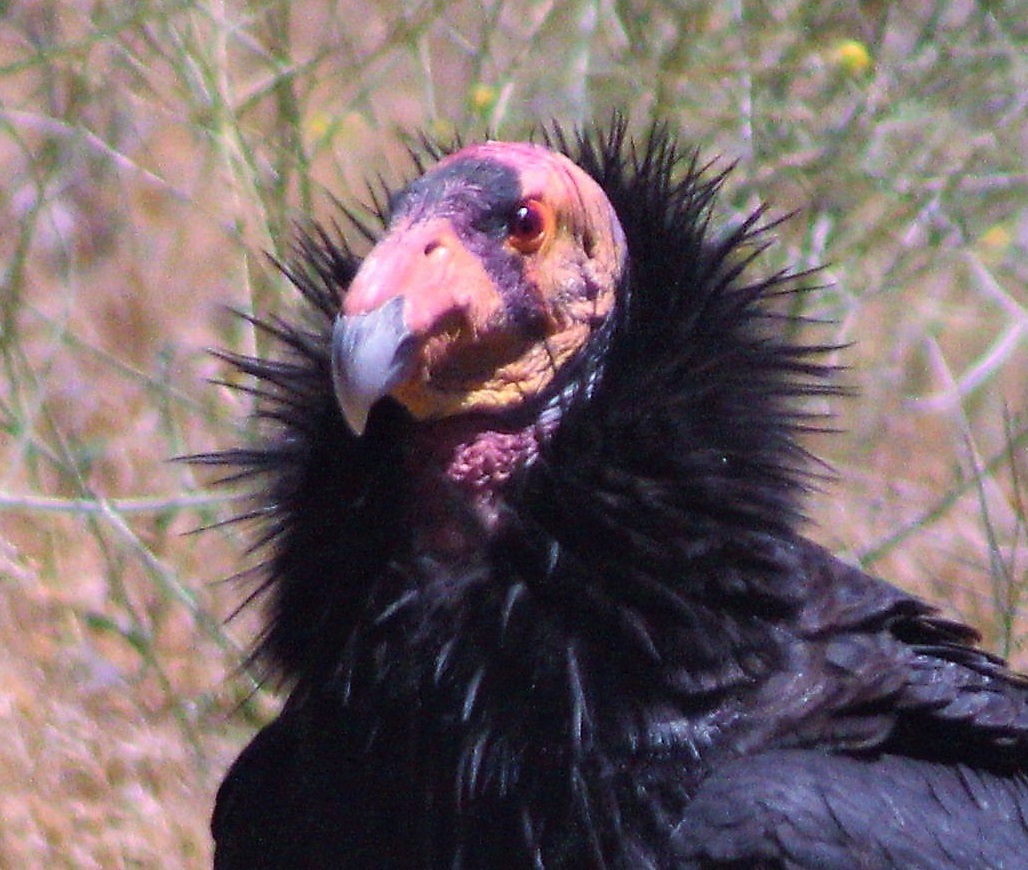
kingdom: Animalia
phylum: Chordata
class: Aves
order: Accipitriformes
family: Cathartidae
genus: Gymnogyps
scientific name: Gymnogyps californianus
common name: California condor
